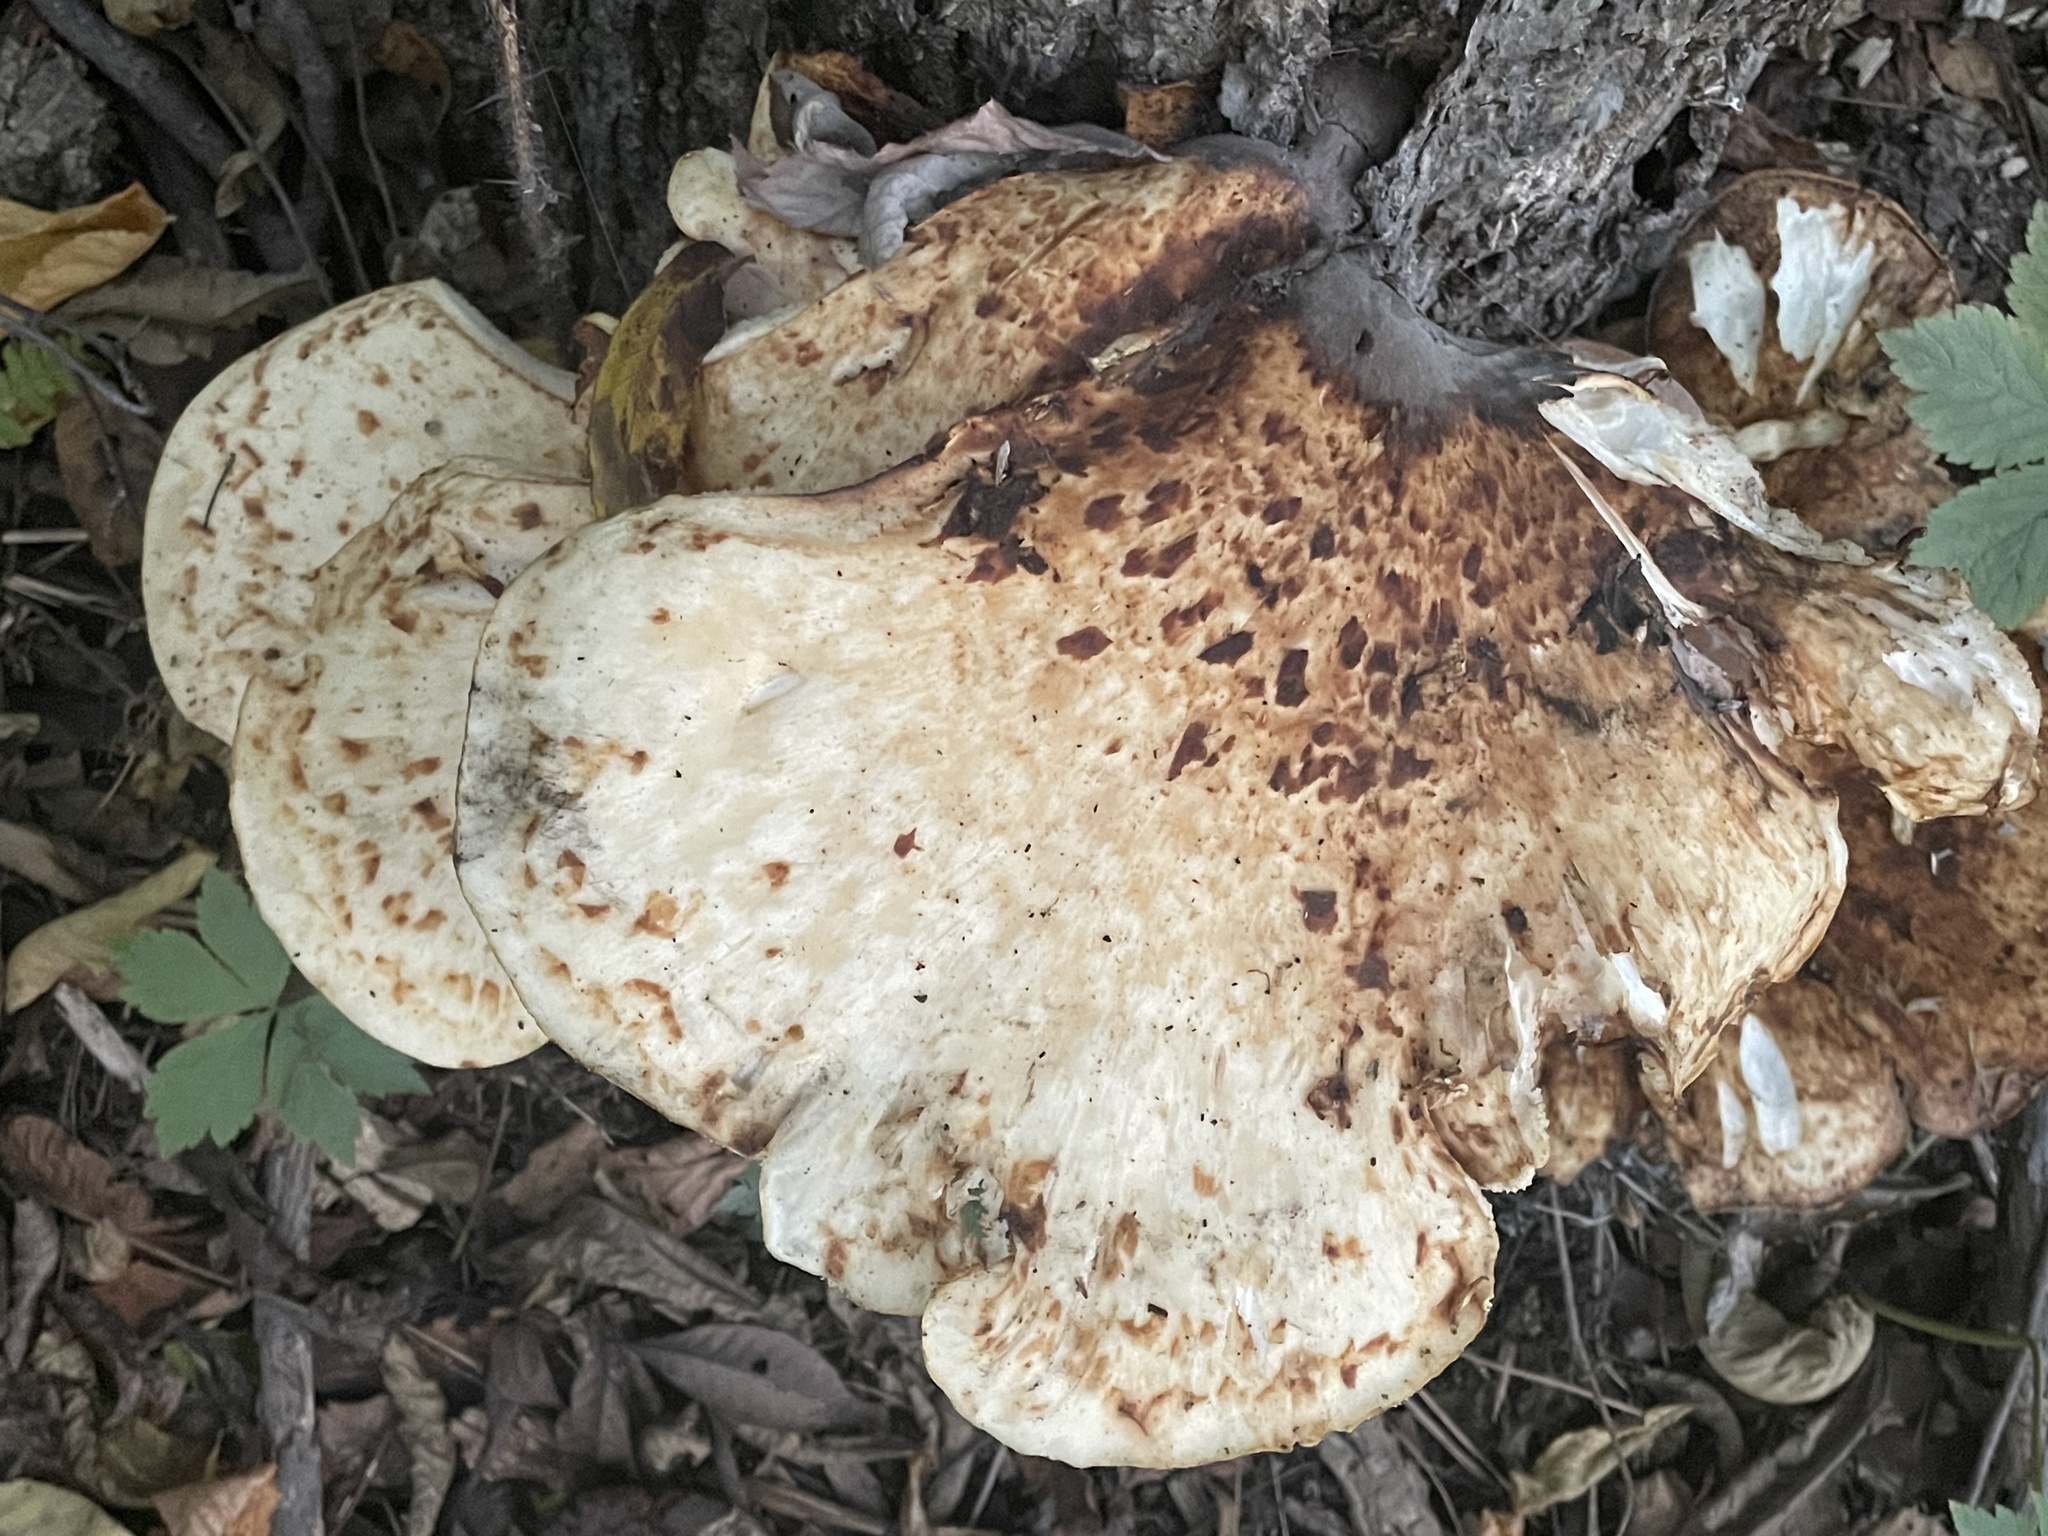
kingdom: Fungi
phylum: Basidiomycota
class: Agaricomycetes
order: Polyporales
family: Polyporaceae
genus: Cerioporus
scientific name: Cerioporus squamosus
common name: Dryad's saddle
